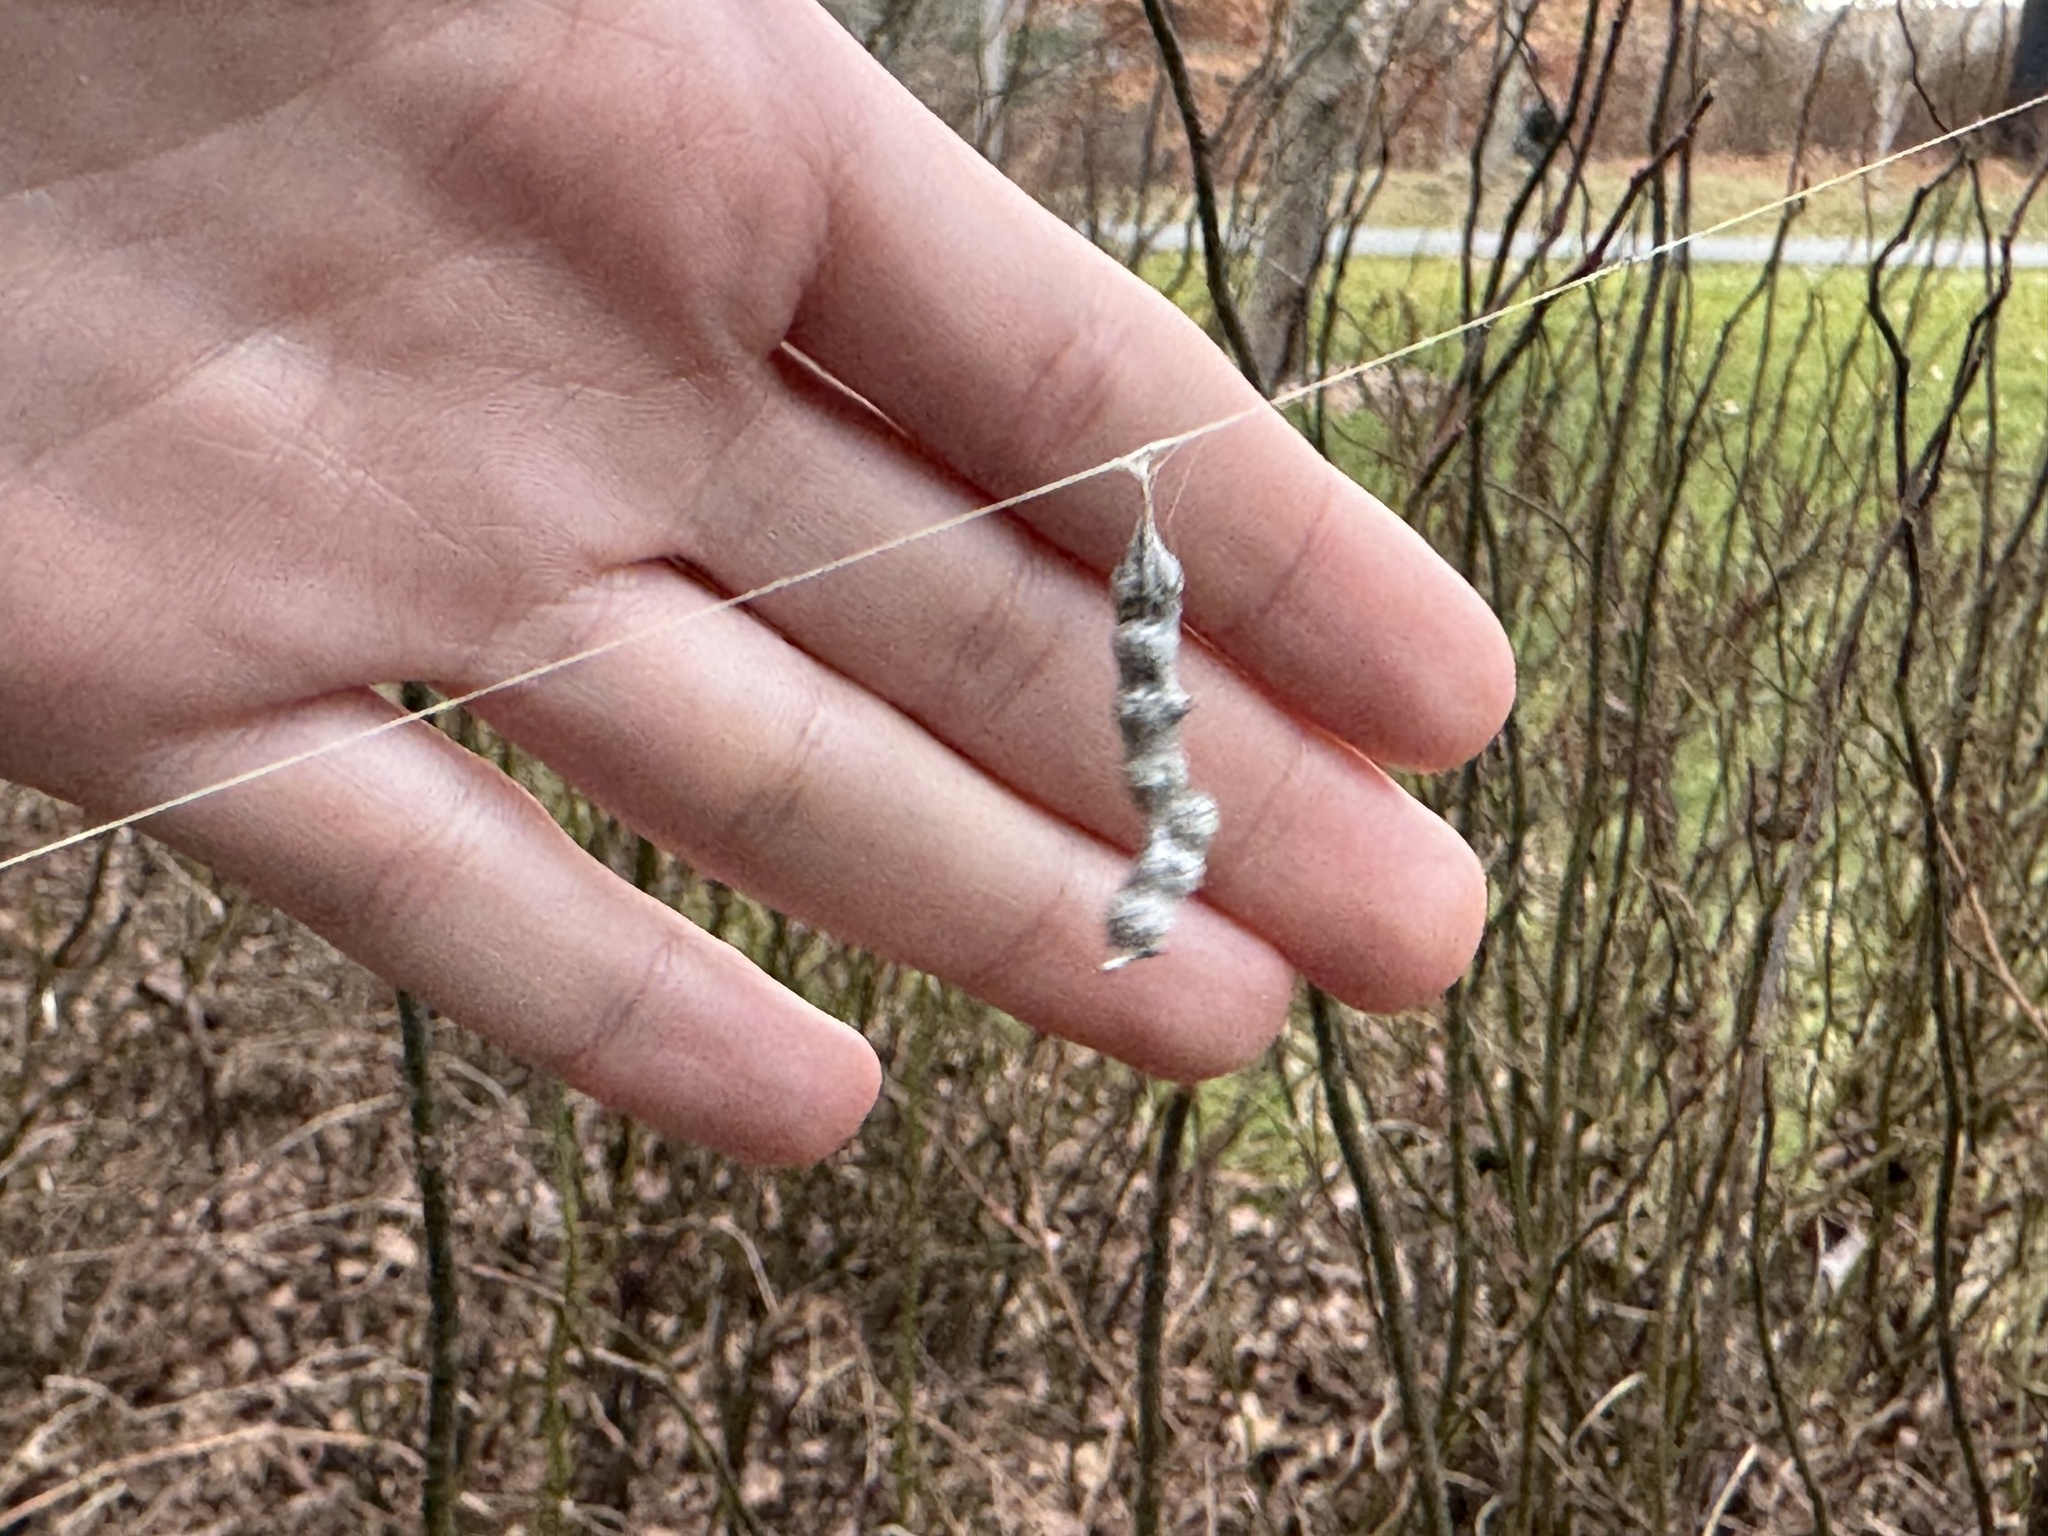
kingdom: Animalia
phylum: Arthropoda
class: Arachnida
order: Araneae
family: Araneidae
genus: Mecynogea
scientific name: Mecynogea lemniscata
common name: Orb weavers
